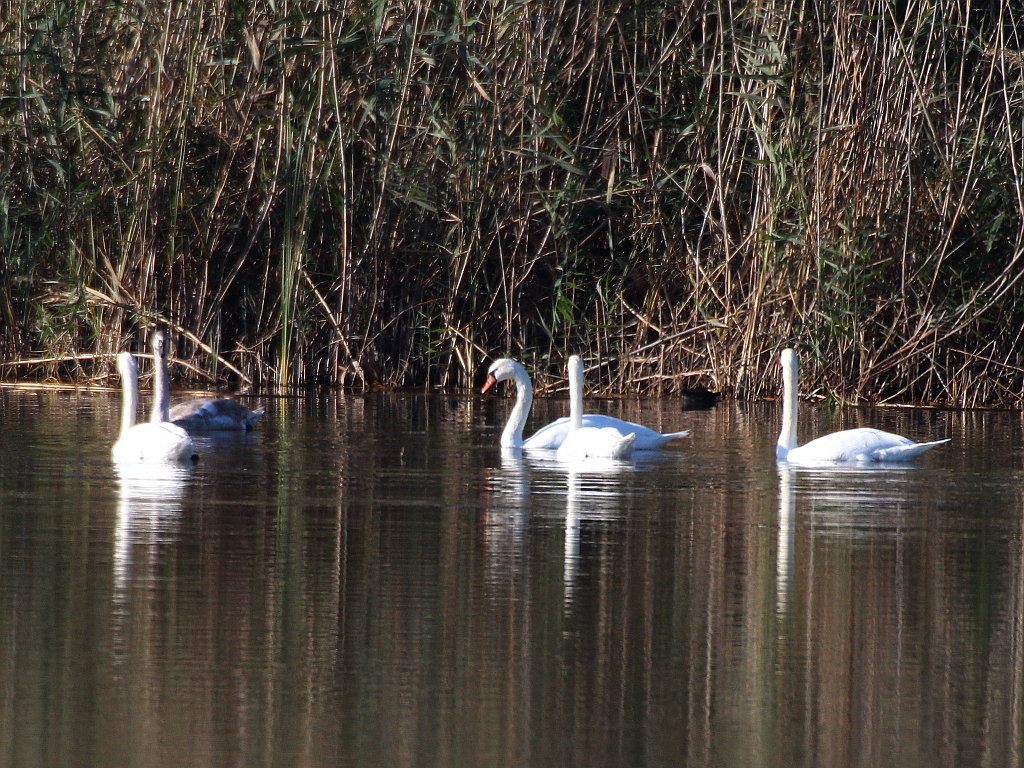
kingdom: Animalia
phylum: Chordata
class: Aves
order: Anseriformes
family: Anatidae
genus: Cygnus
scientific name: Cygnus olor
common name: Mute swan
